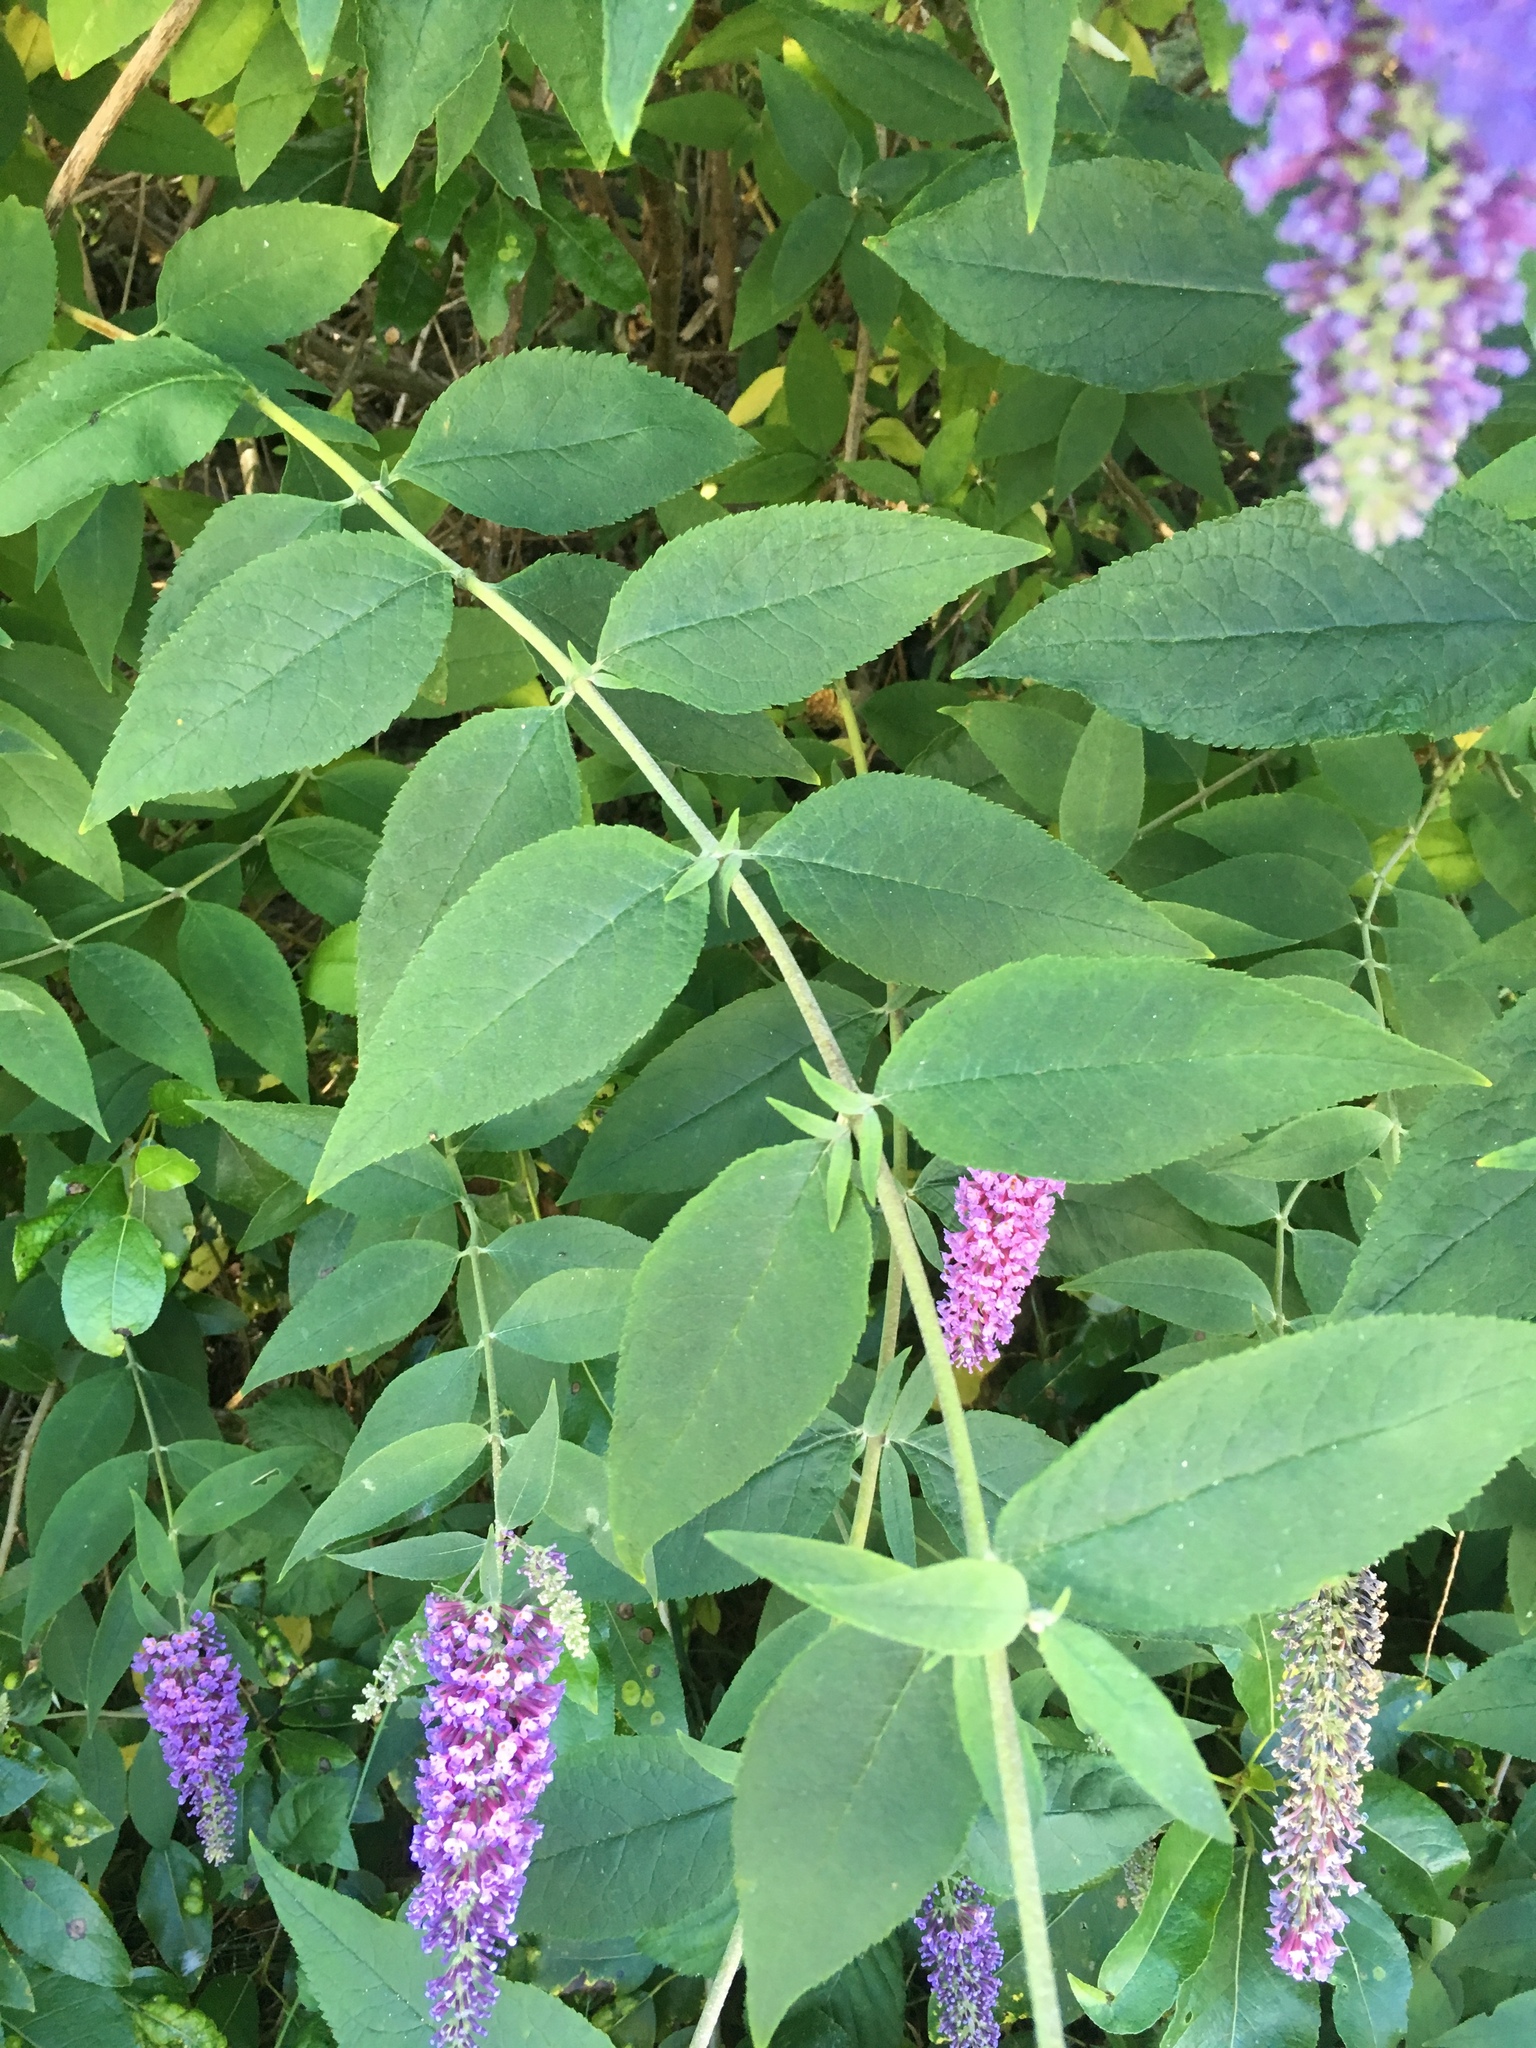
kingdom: Plantae
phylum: Tracheophyta
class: Magnoliopsida
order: Lamiales
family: Scrophulariaceae
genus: Buddleja
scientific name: Buddleja davidii
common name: Butterfly-bush
